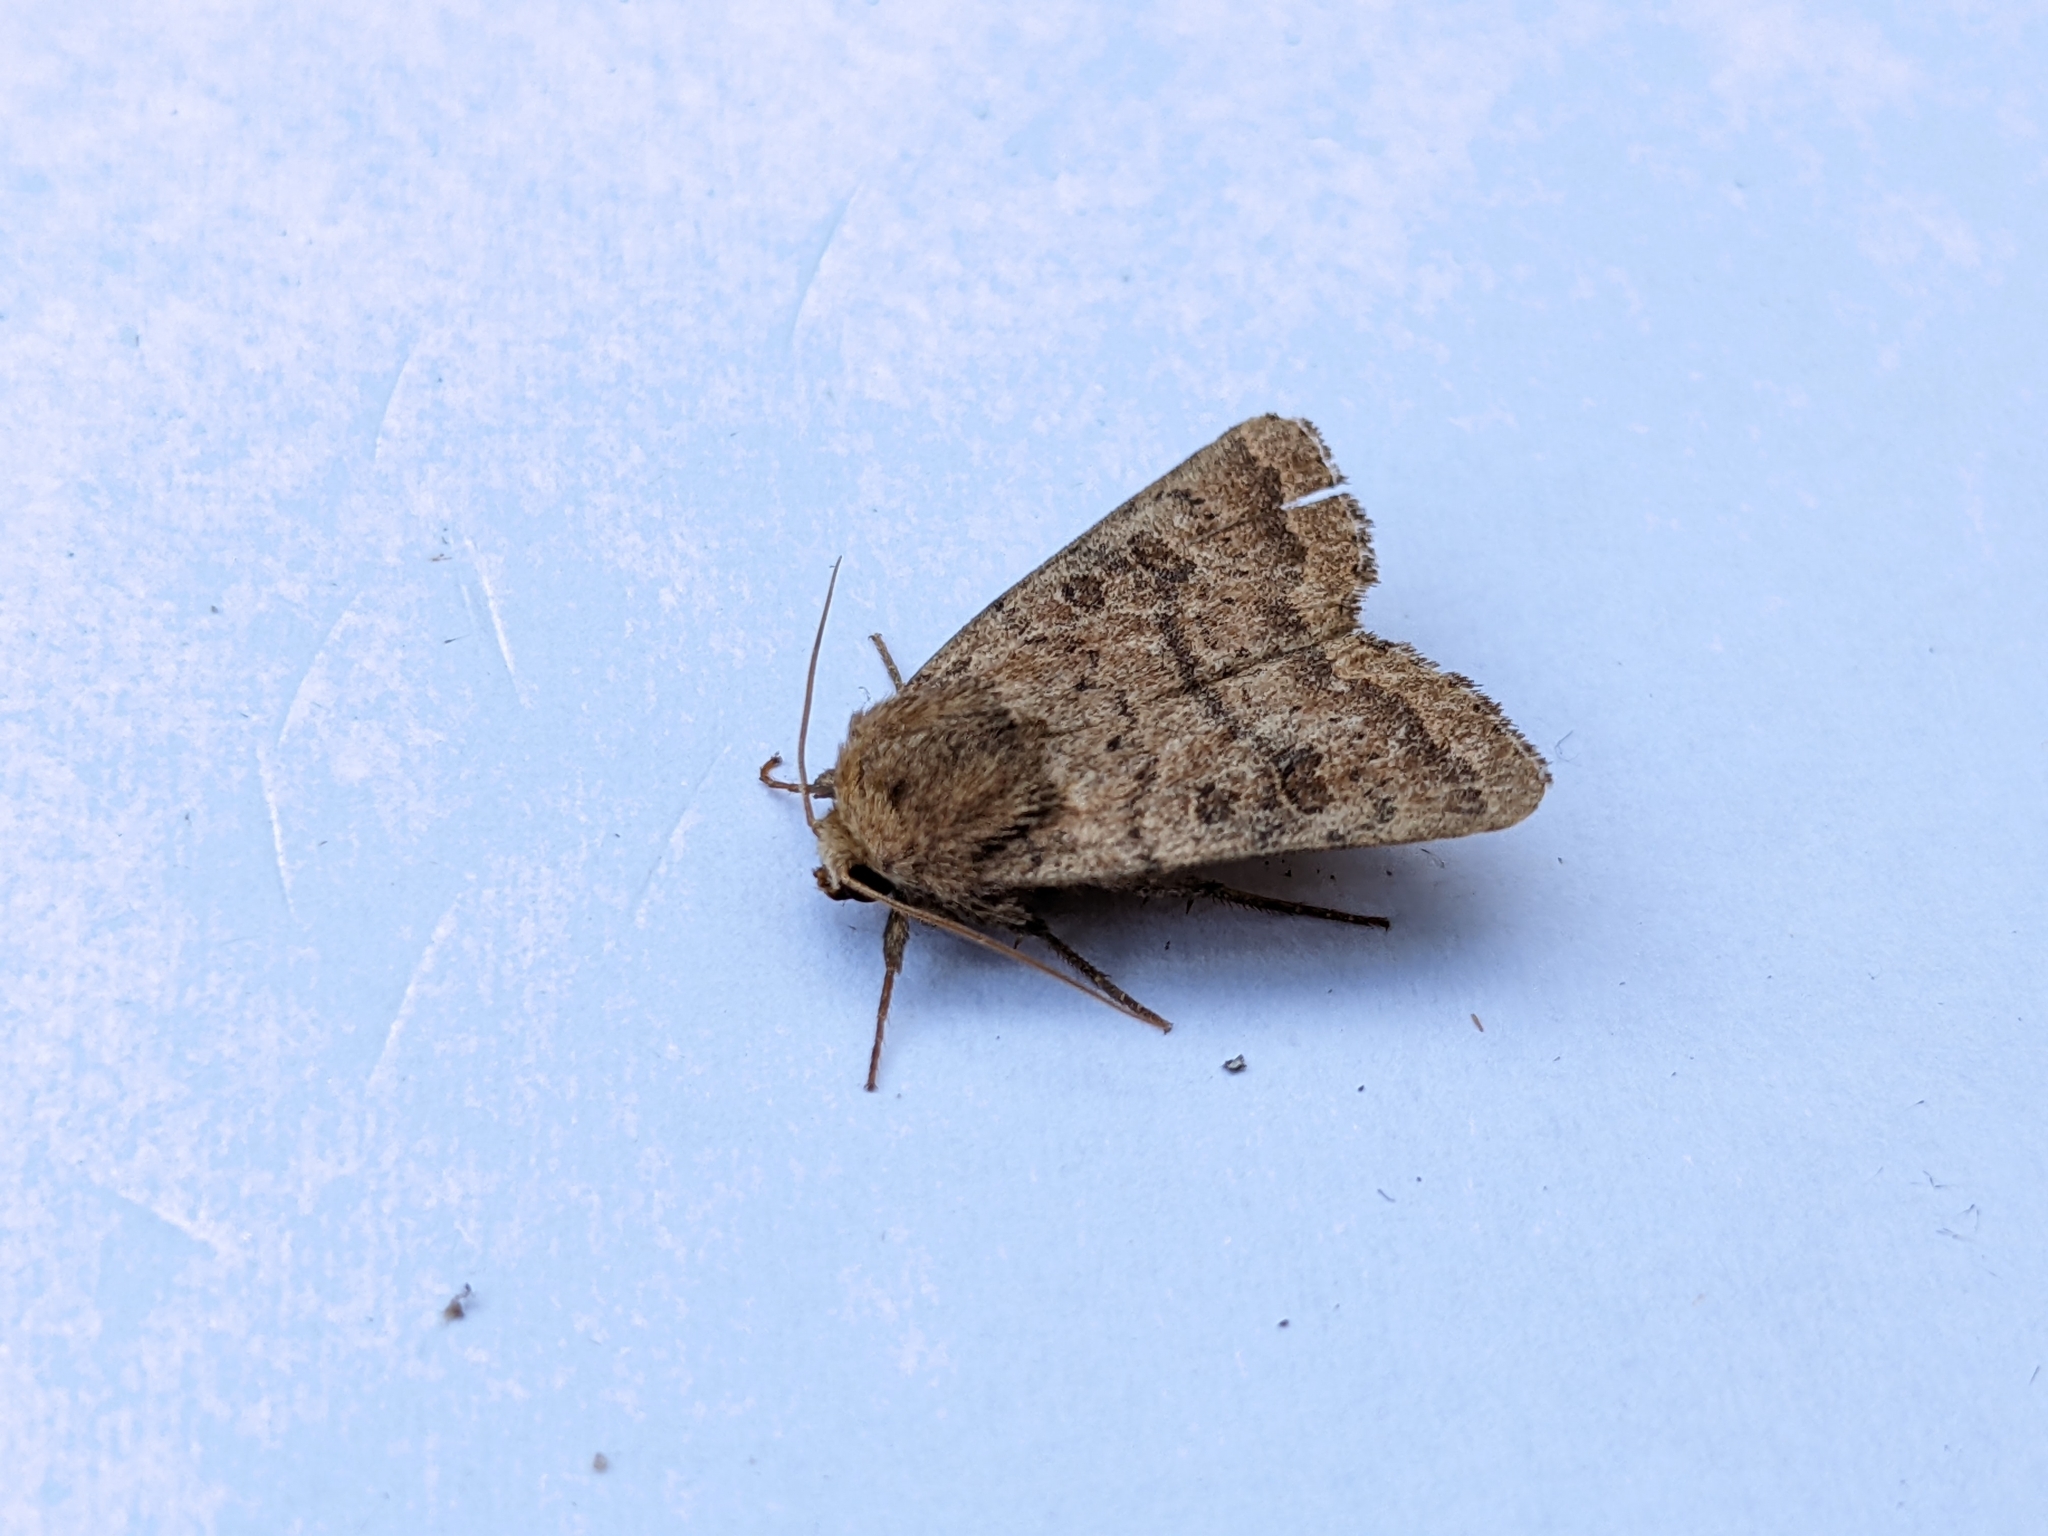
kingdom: Animalia
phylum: Arthropoda
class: Insecta
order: Lepidoptera
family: Noctuidae
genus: Hoplodrina
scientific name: Hoplodrina octogenaria
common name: Uncertain
